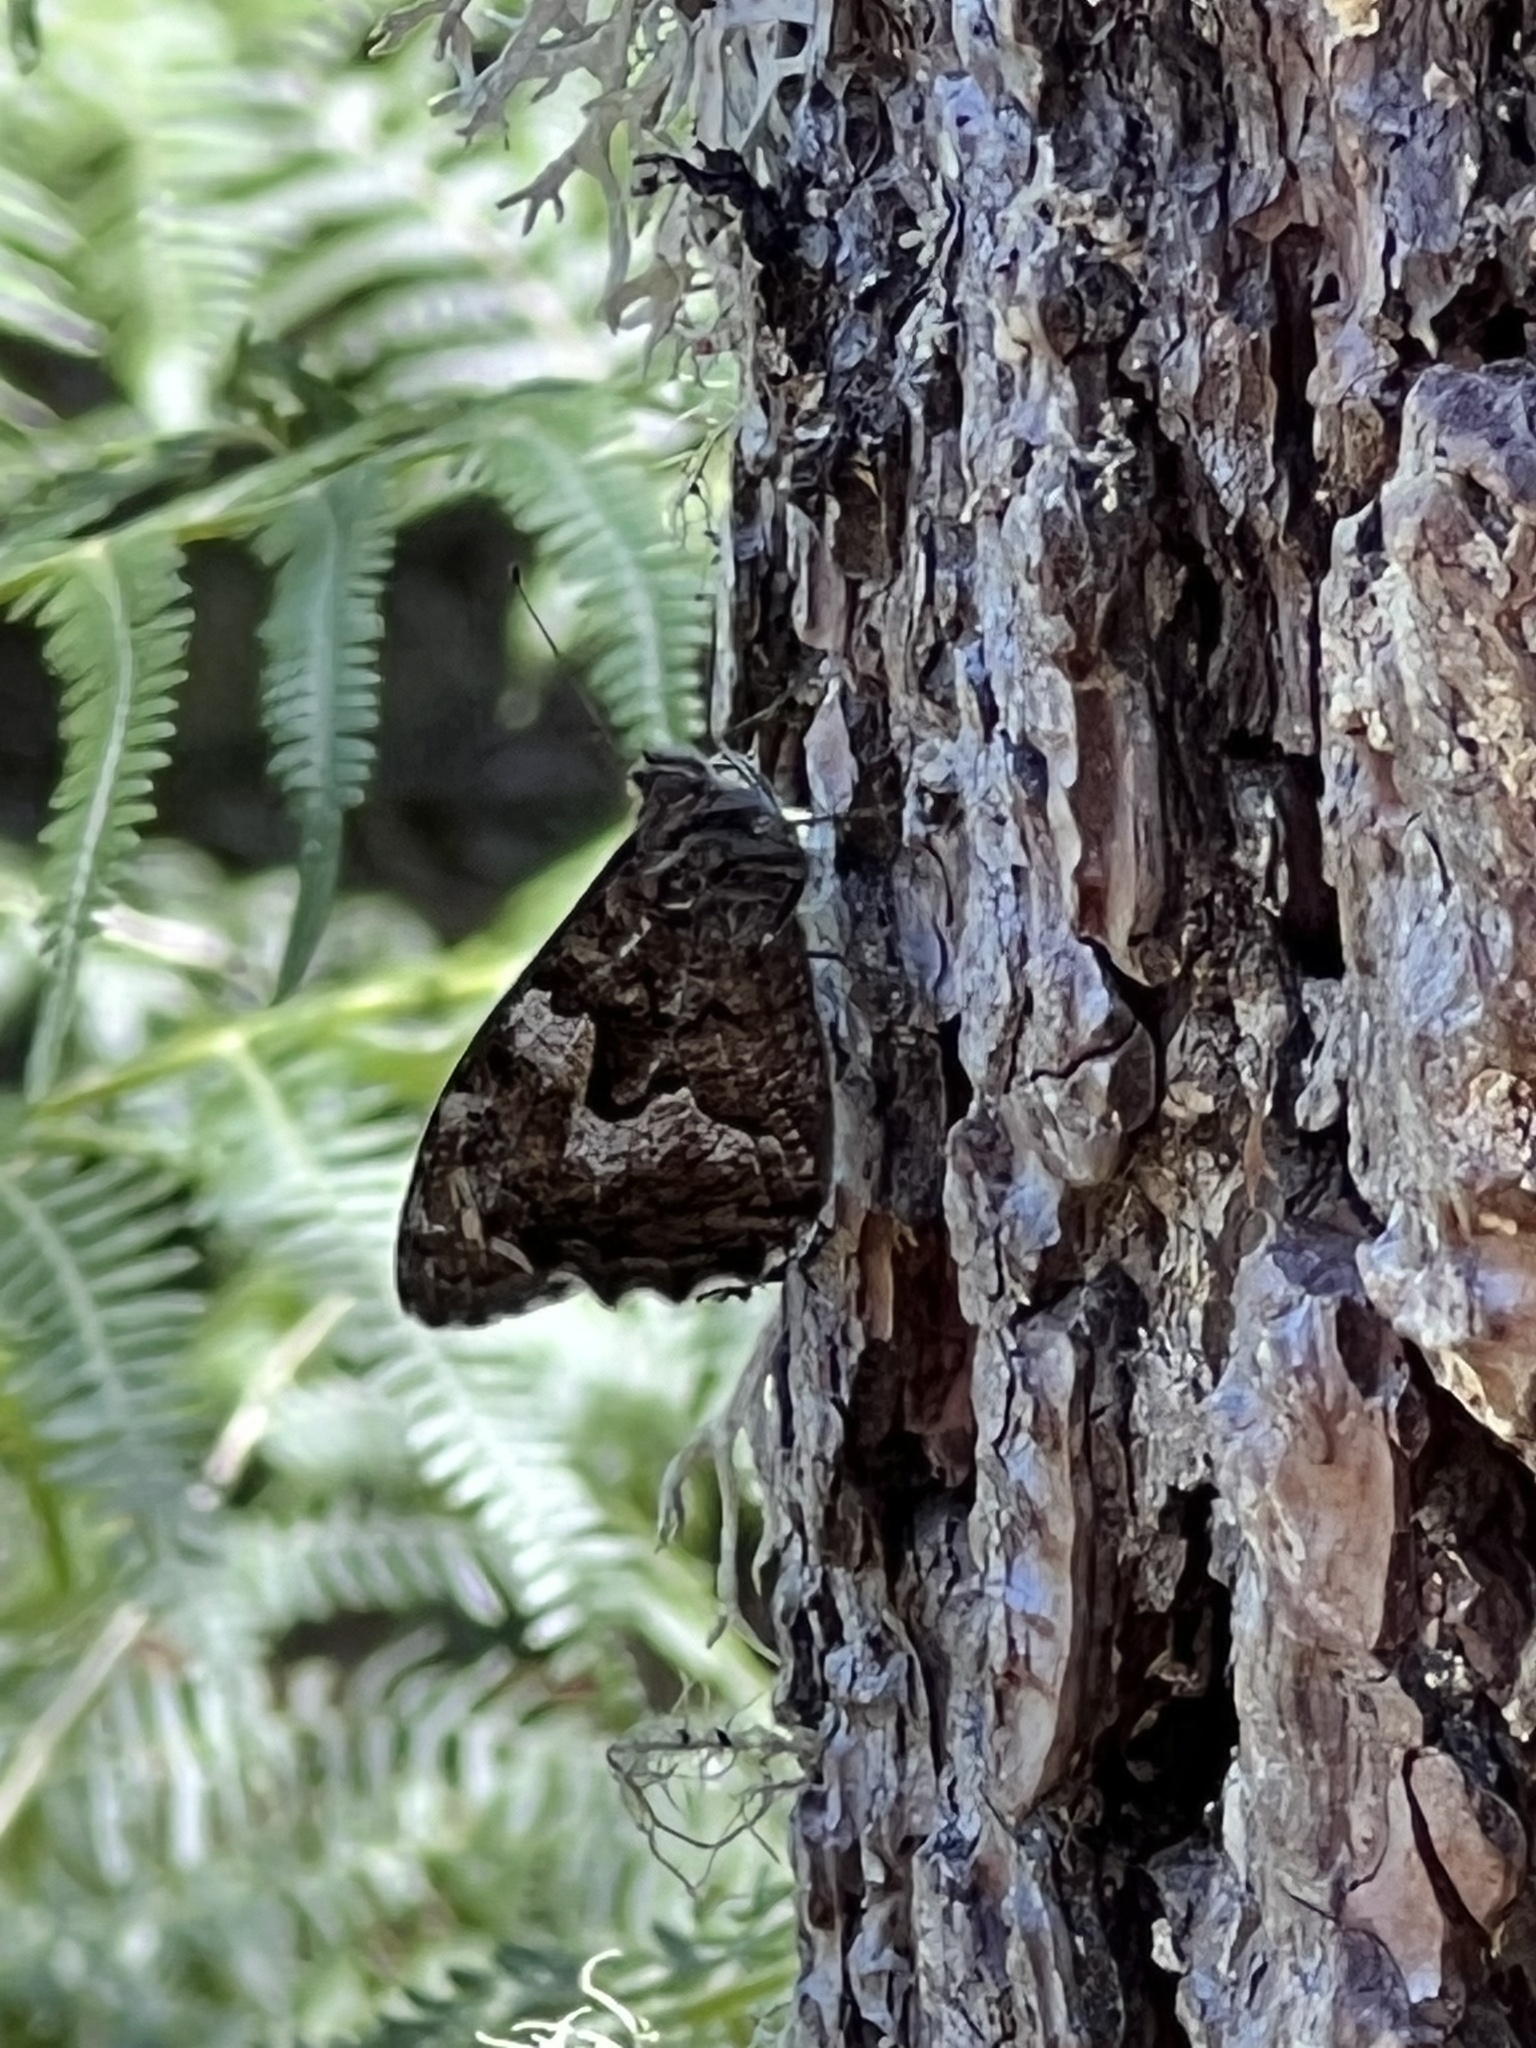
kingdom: Animalia
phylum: Arthropoda
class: Insecta
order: Lepidoptera
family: Nymphalidae
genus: Hipparchia
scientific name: Hipparchia semele
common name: Grayling
